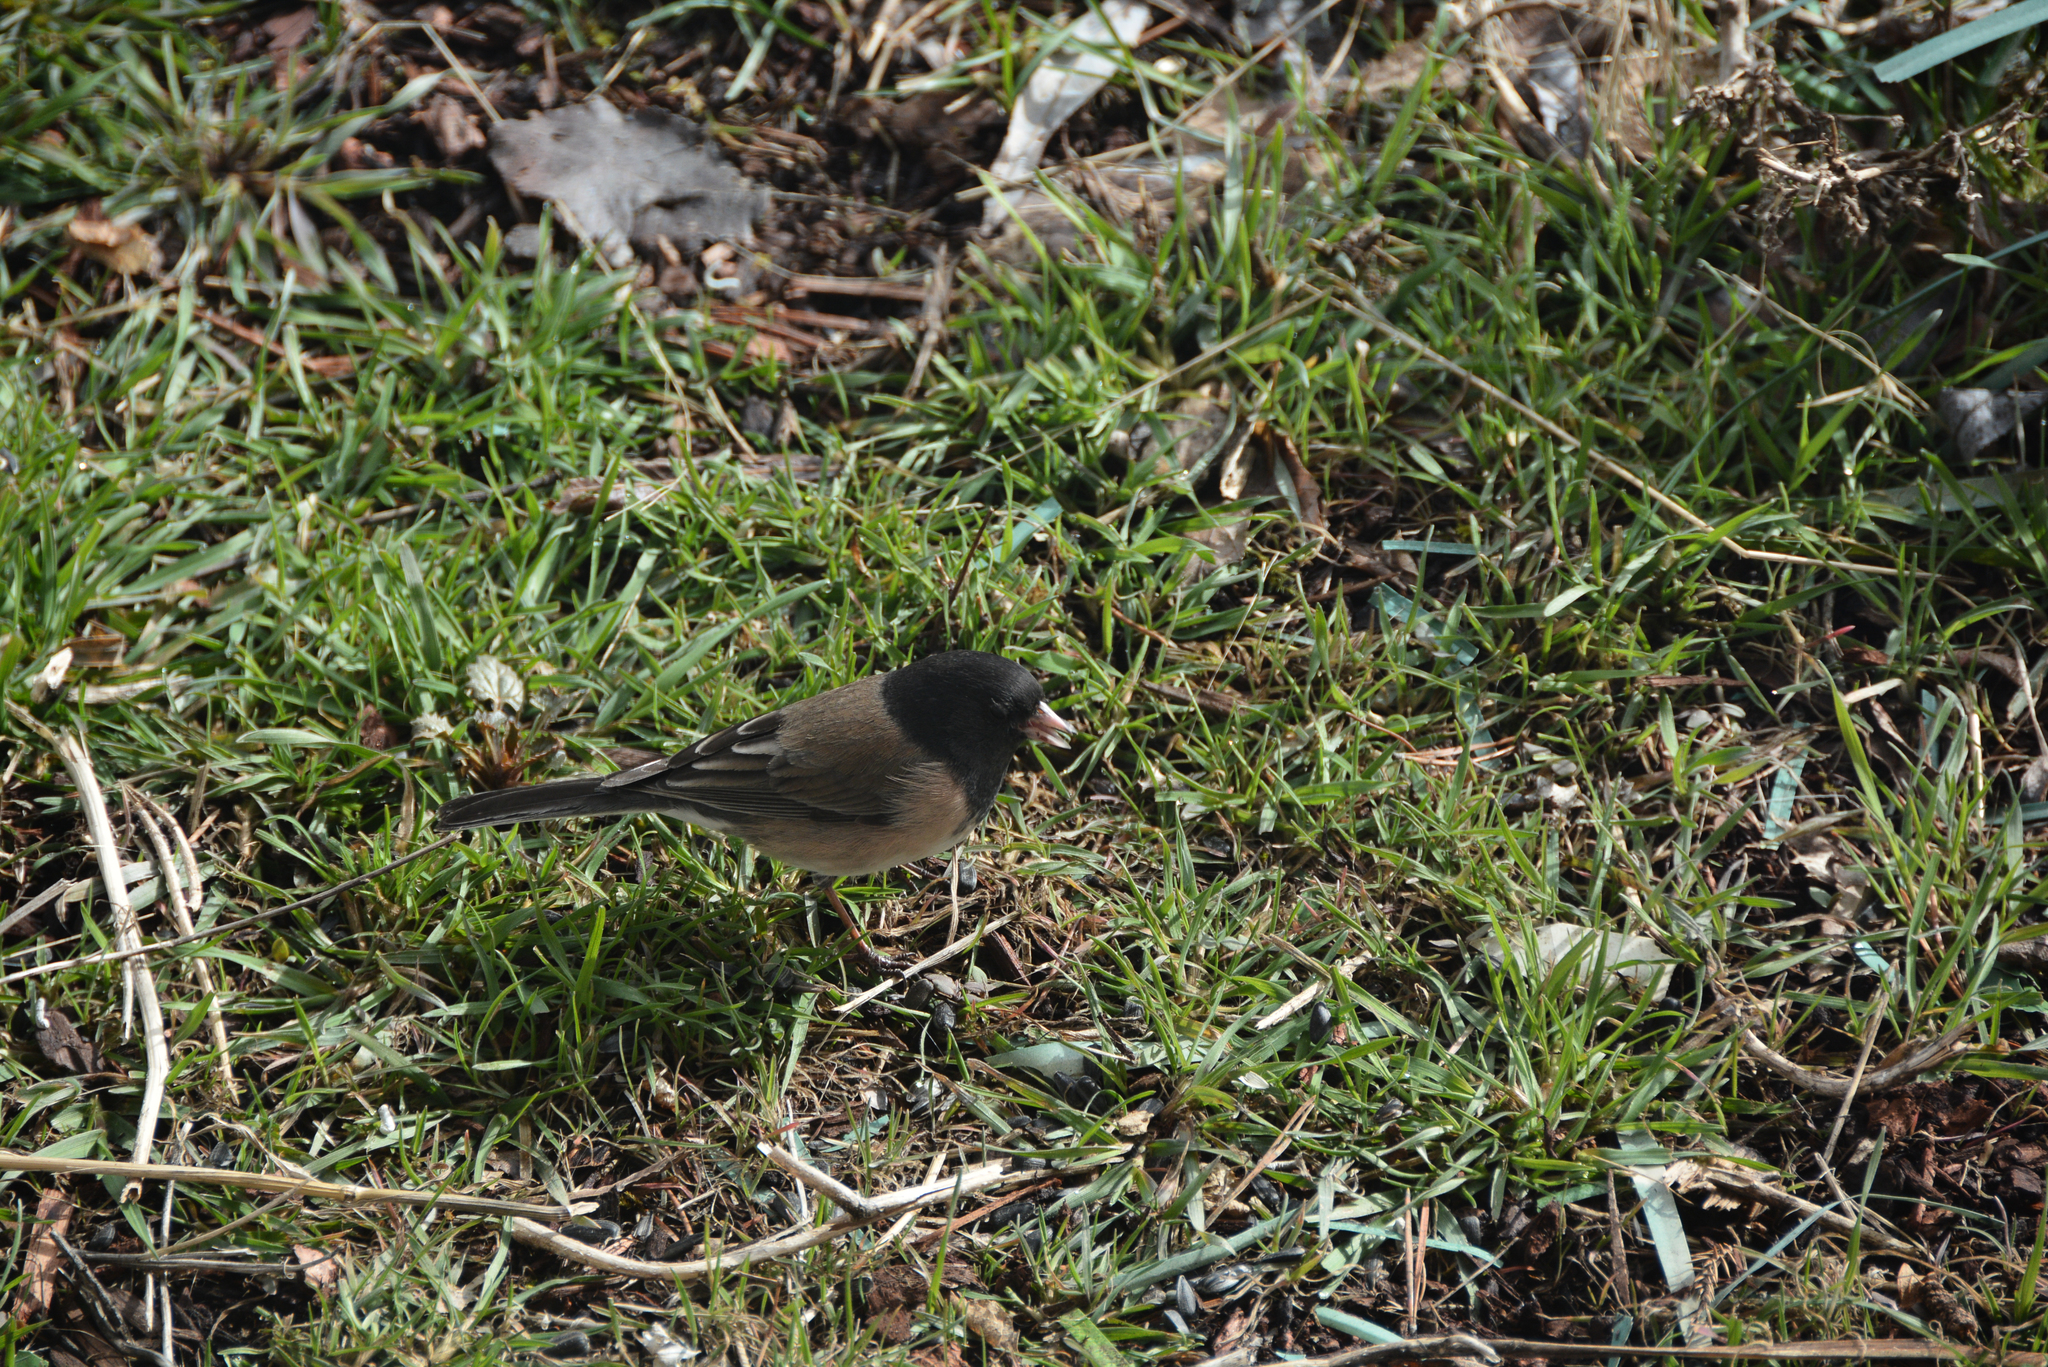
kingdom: Animalia
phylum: Chordata
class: Aves
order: Passeriformes
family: Passerellidae
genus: Junco
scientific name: Junco hyemalis
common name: Dark-eyed junco
